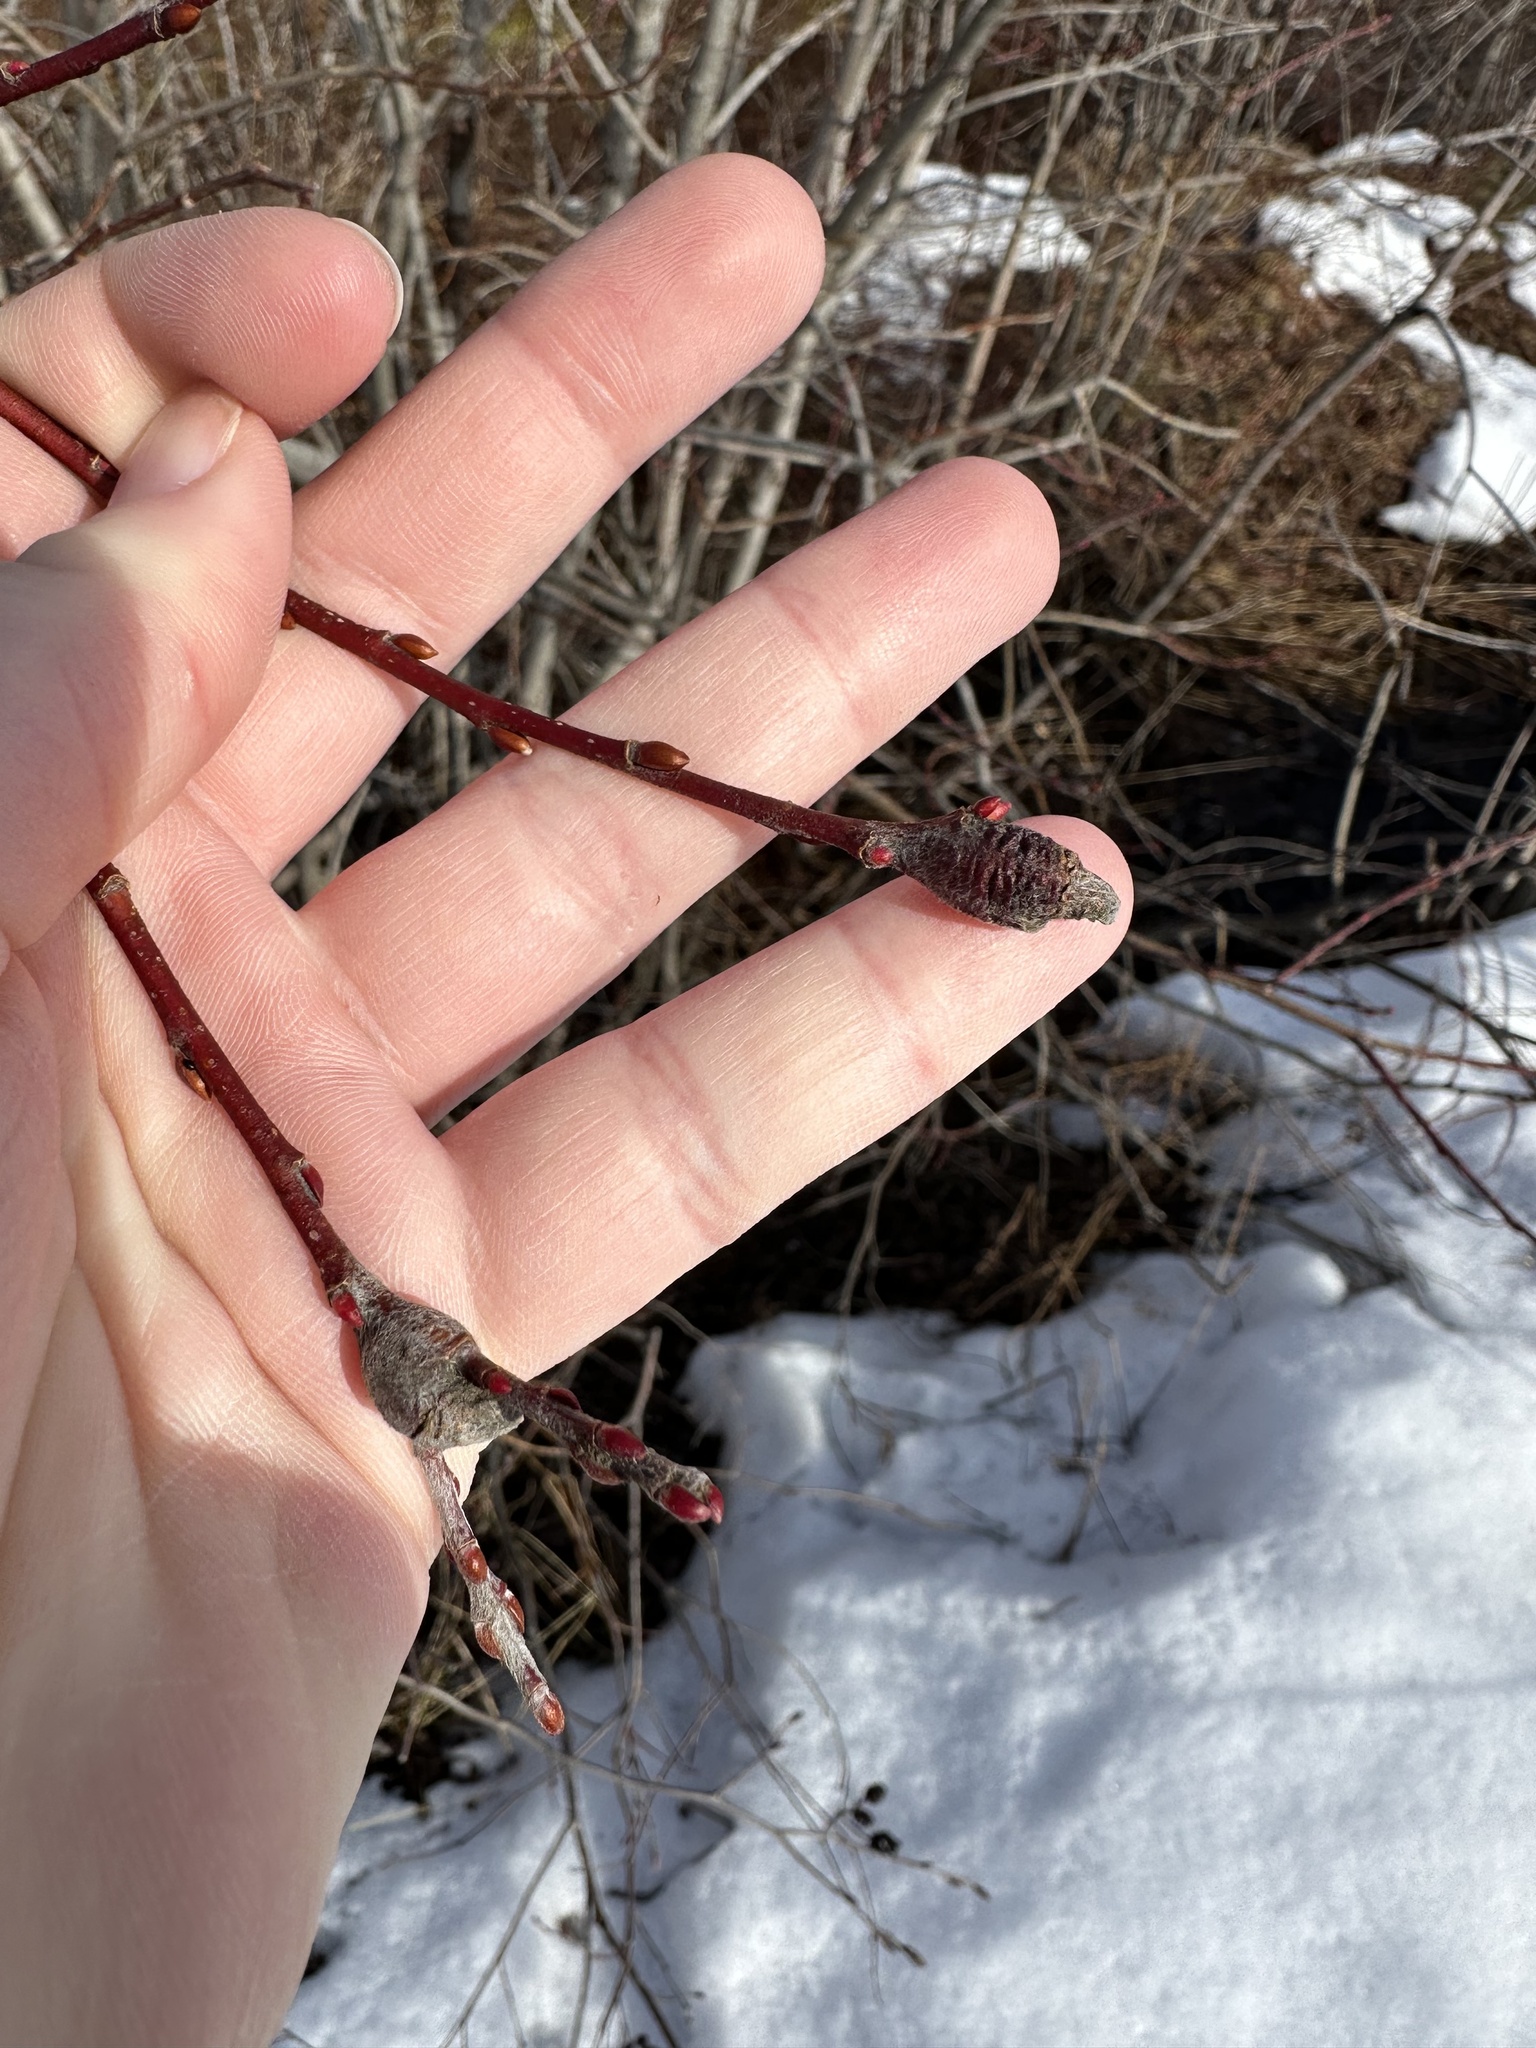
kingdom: Animalia
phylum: Arthropoda
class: Insecta
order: Diptera
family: Cecidomyiidae
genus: Thecodiplosis
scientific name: Thecodiplosis pinirigidae
